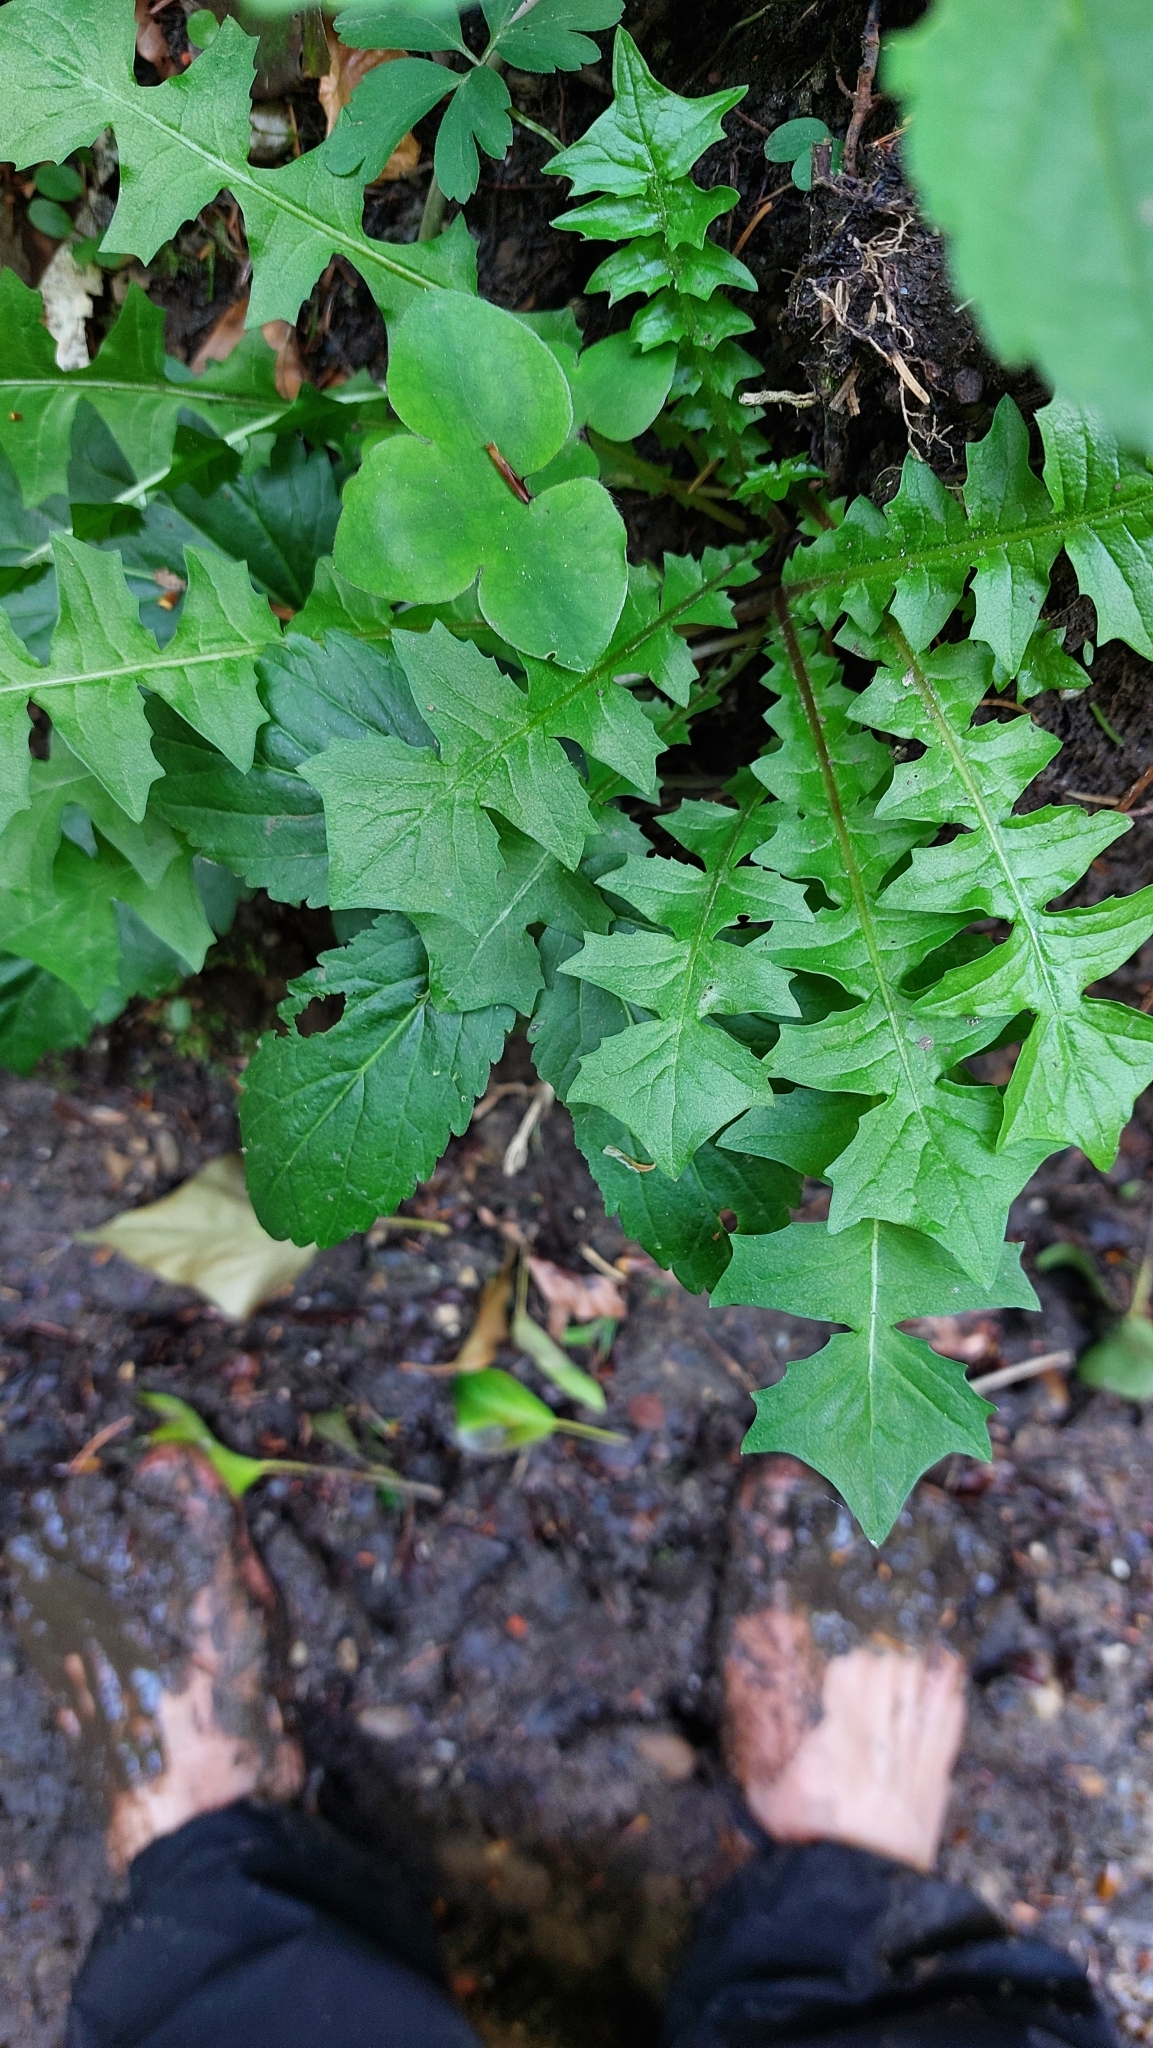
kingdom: Plantae
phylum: Tracheophyta
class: Magnoliopsida
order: Asterales
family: Asteraceae
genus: Aposeris
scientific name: Aposeris foetida
